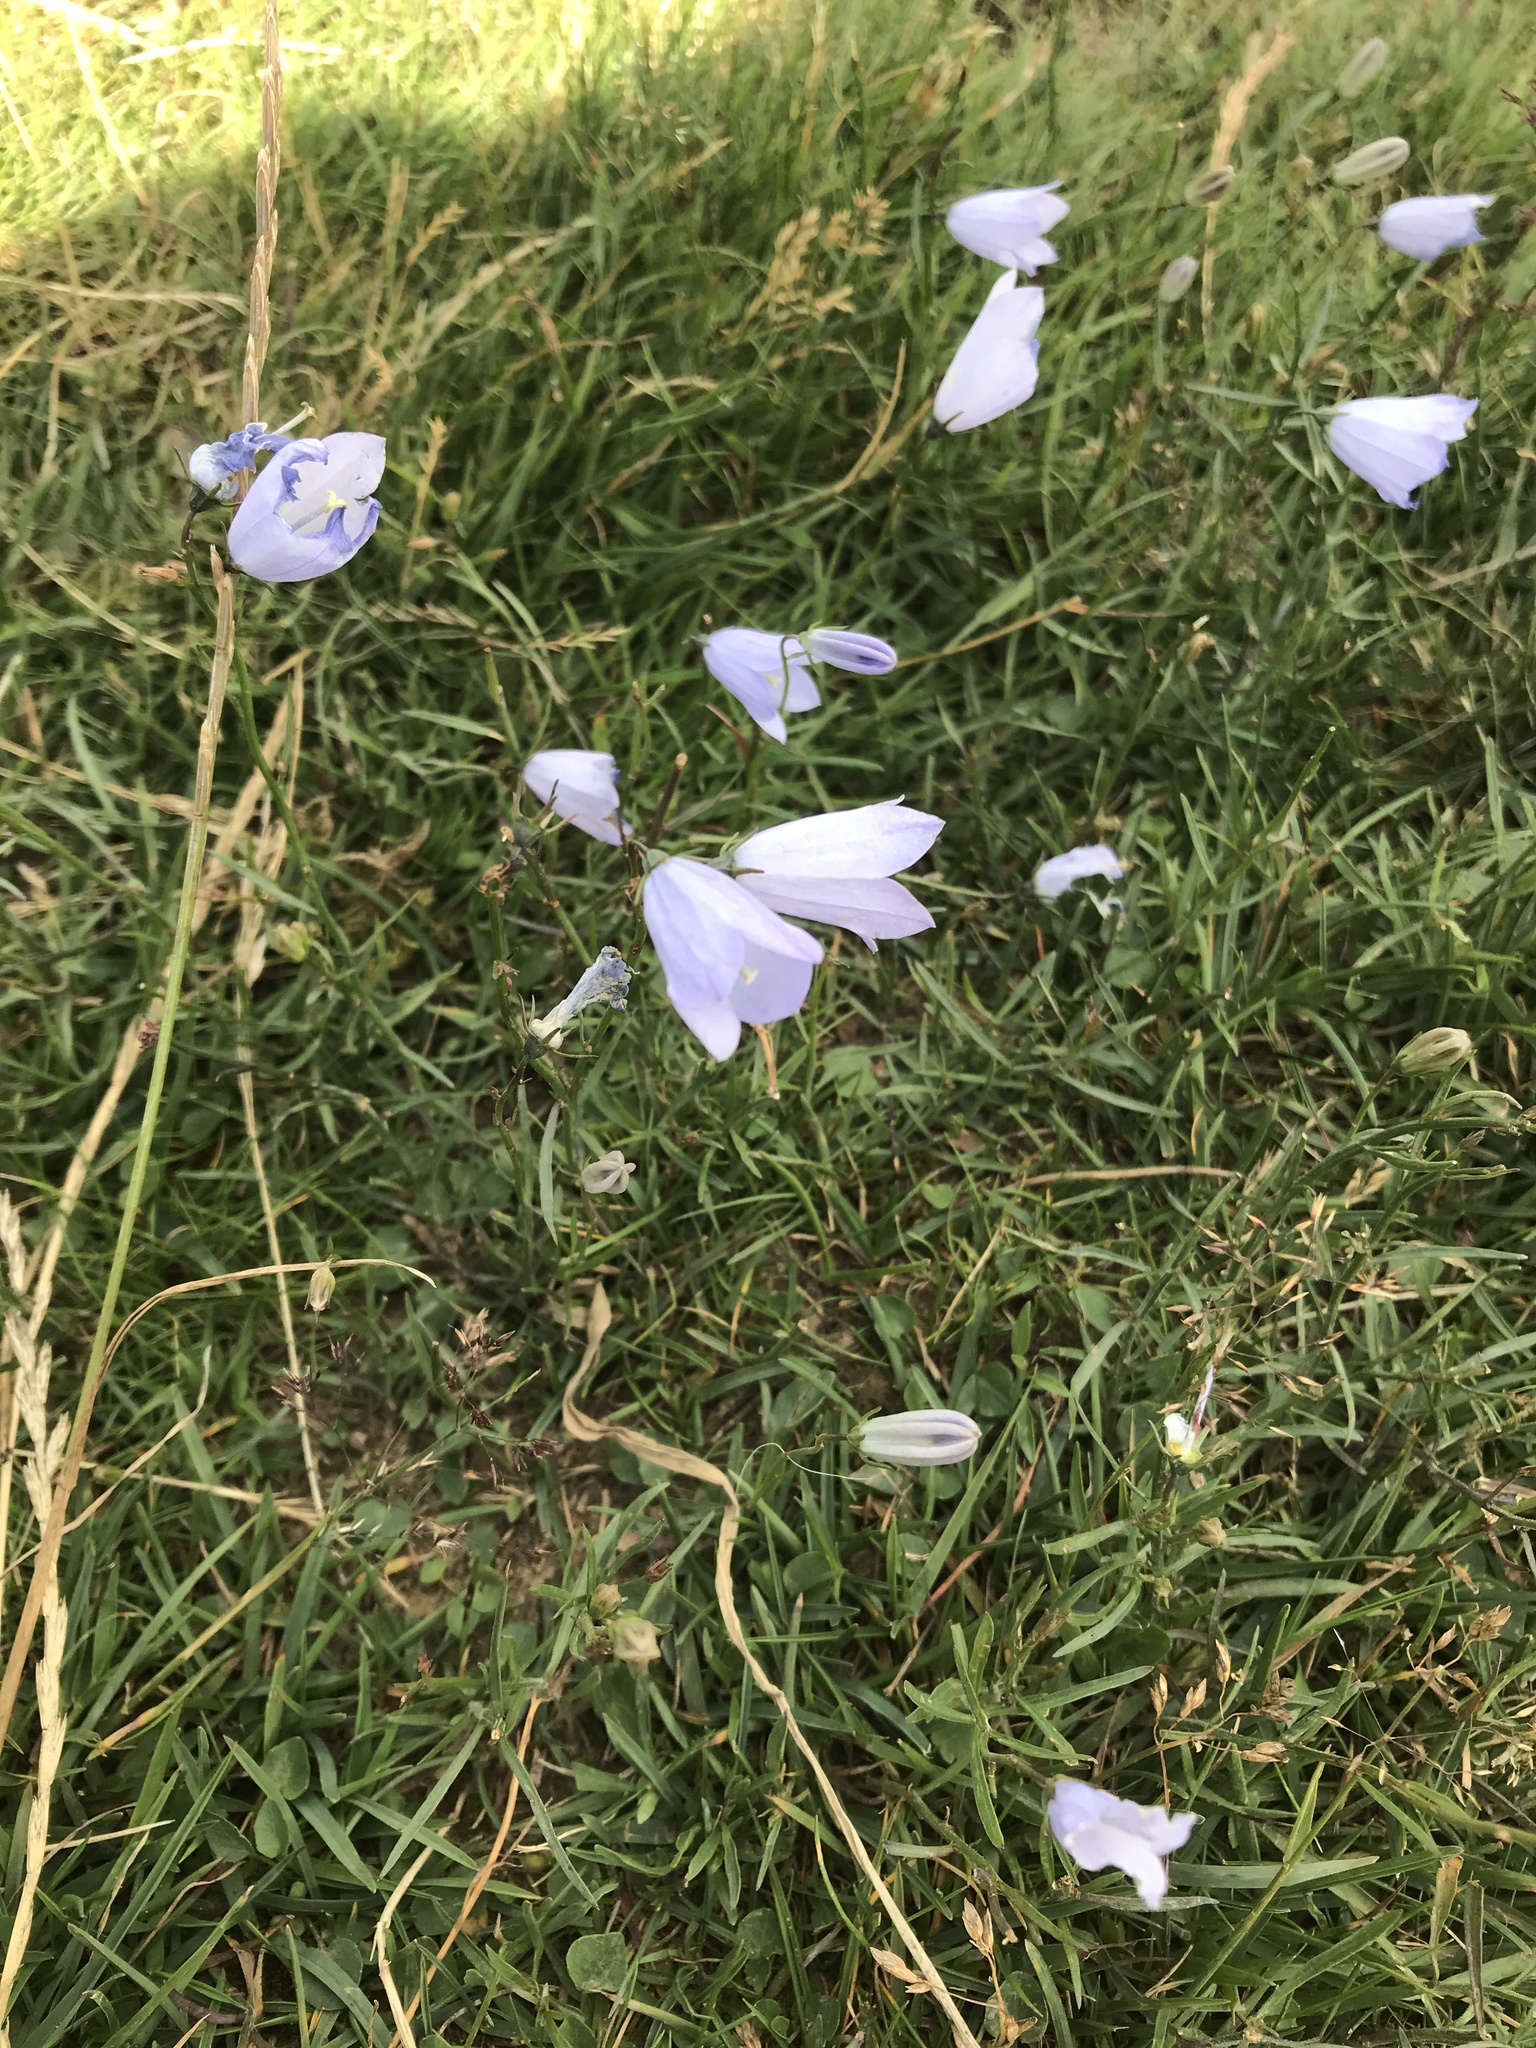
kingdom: Plantae
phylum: Tracheophyta
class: Magnoliopsida
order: Asterales
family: Campanulaceae
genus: Campanula
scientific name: Campanula rotundifolia
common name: Harebell
